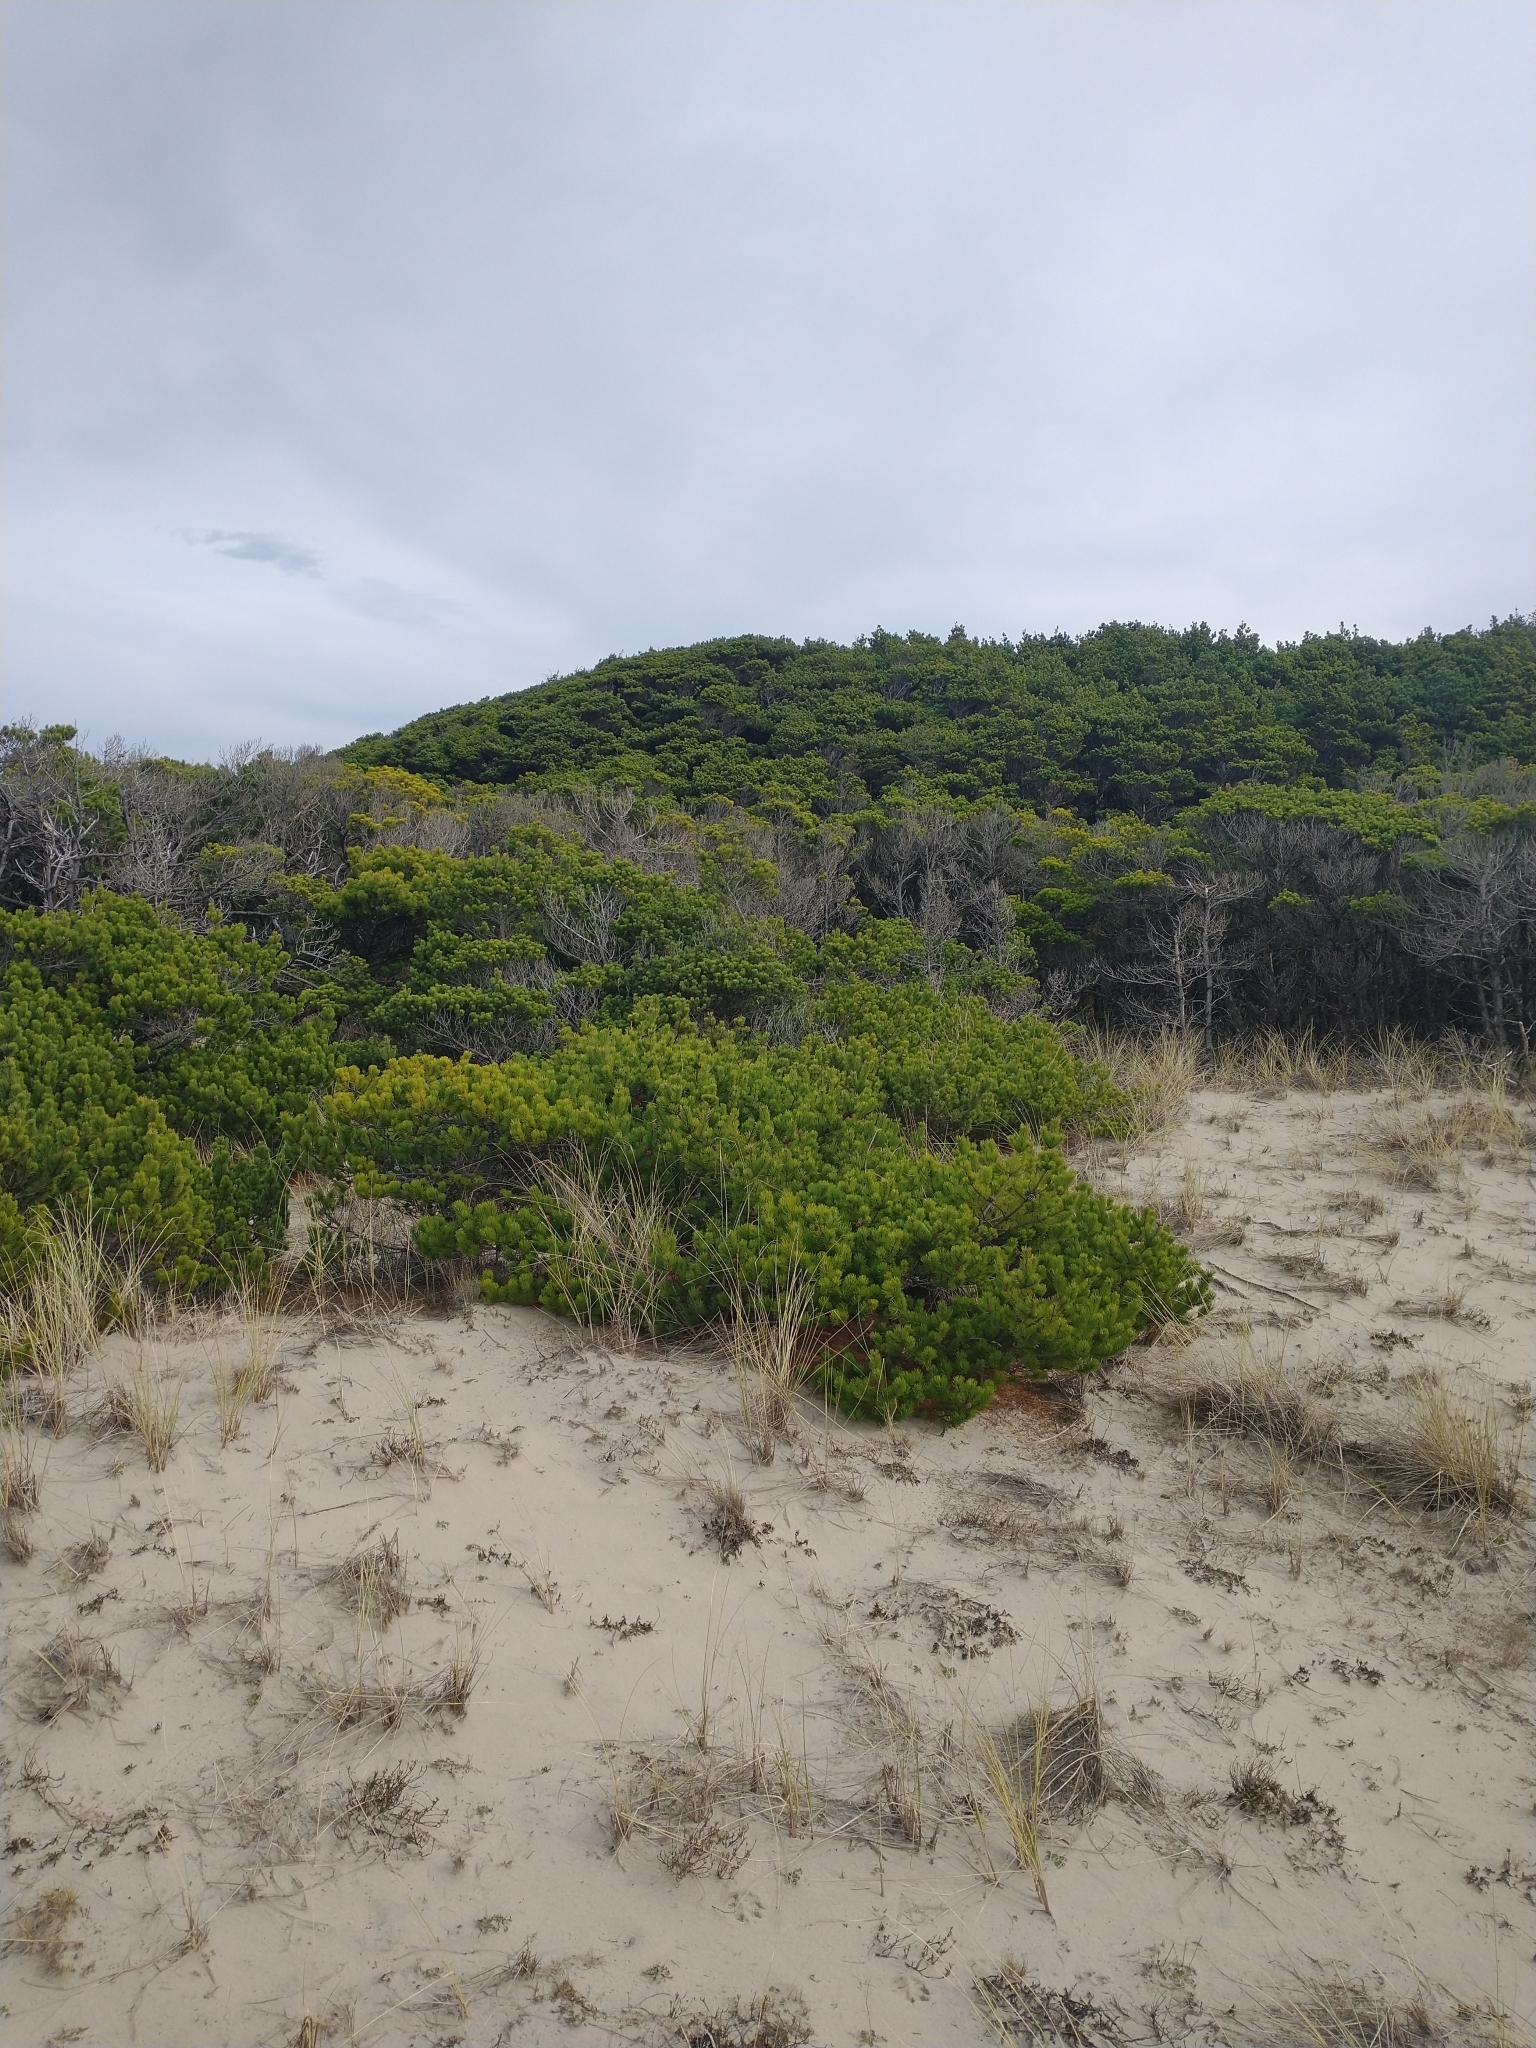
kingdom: Plantae
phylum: Tracheophyta
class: Pinopsida
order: Pinales
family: Pinaceae
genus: Pinus
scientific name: Pinus contorta
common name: Lodgepole pine
